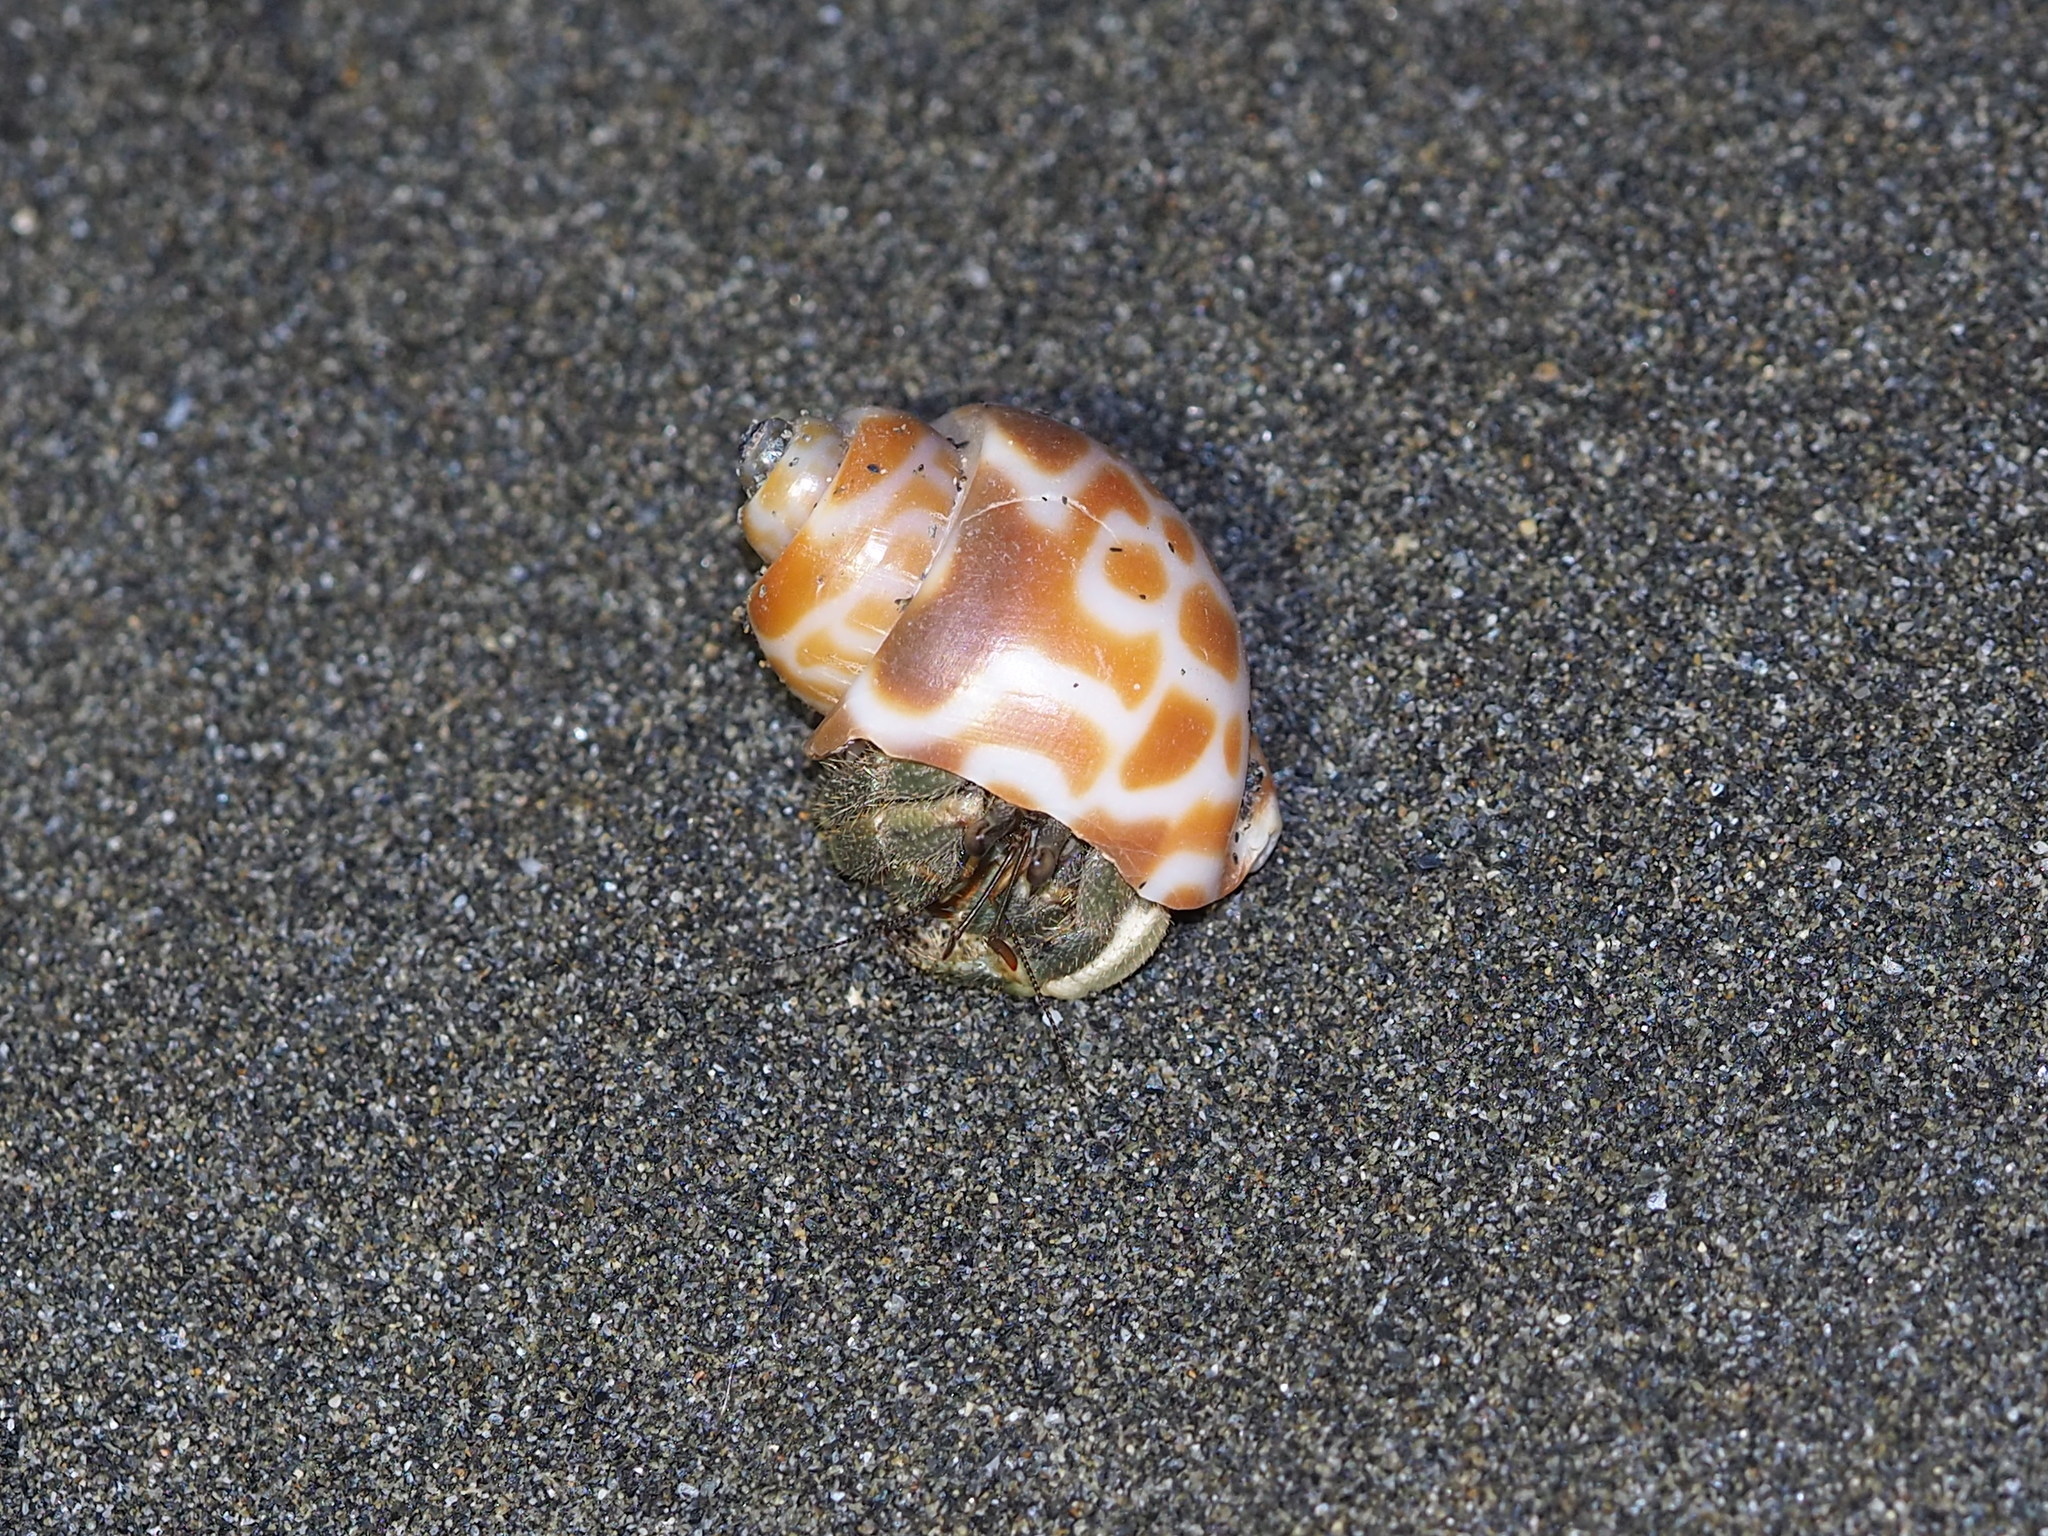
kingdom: Animalia
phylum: Arthropoda
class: Malacostraca
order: Decapoda
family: Coenobitidae
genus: Coenobita
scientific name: Coenobita rugosus
